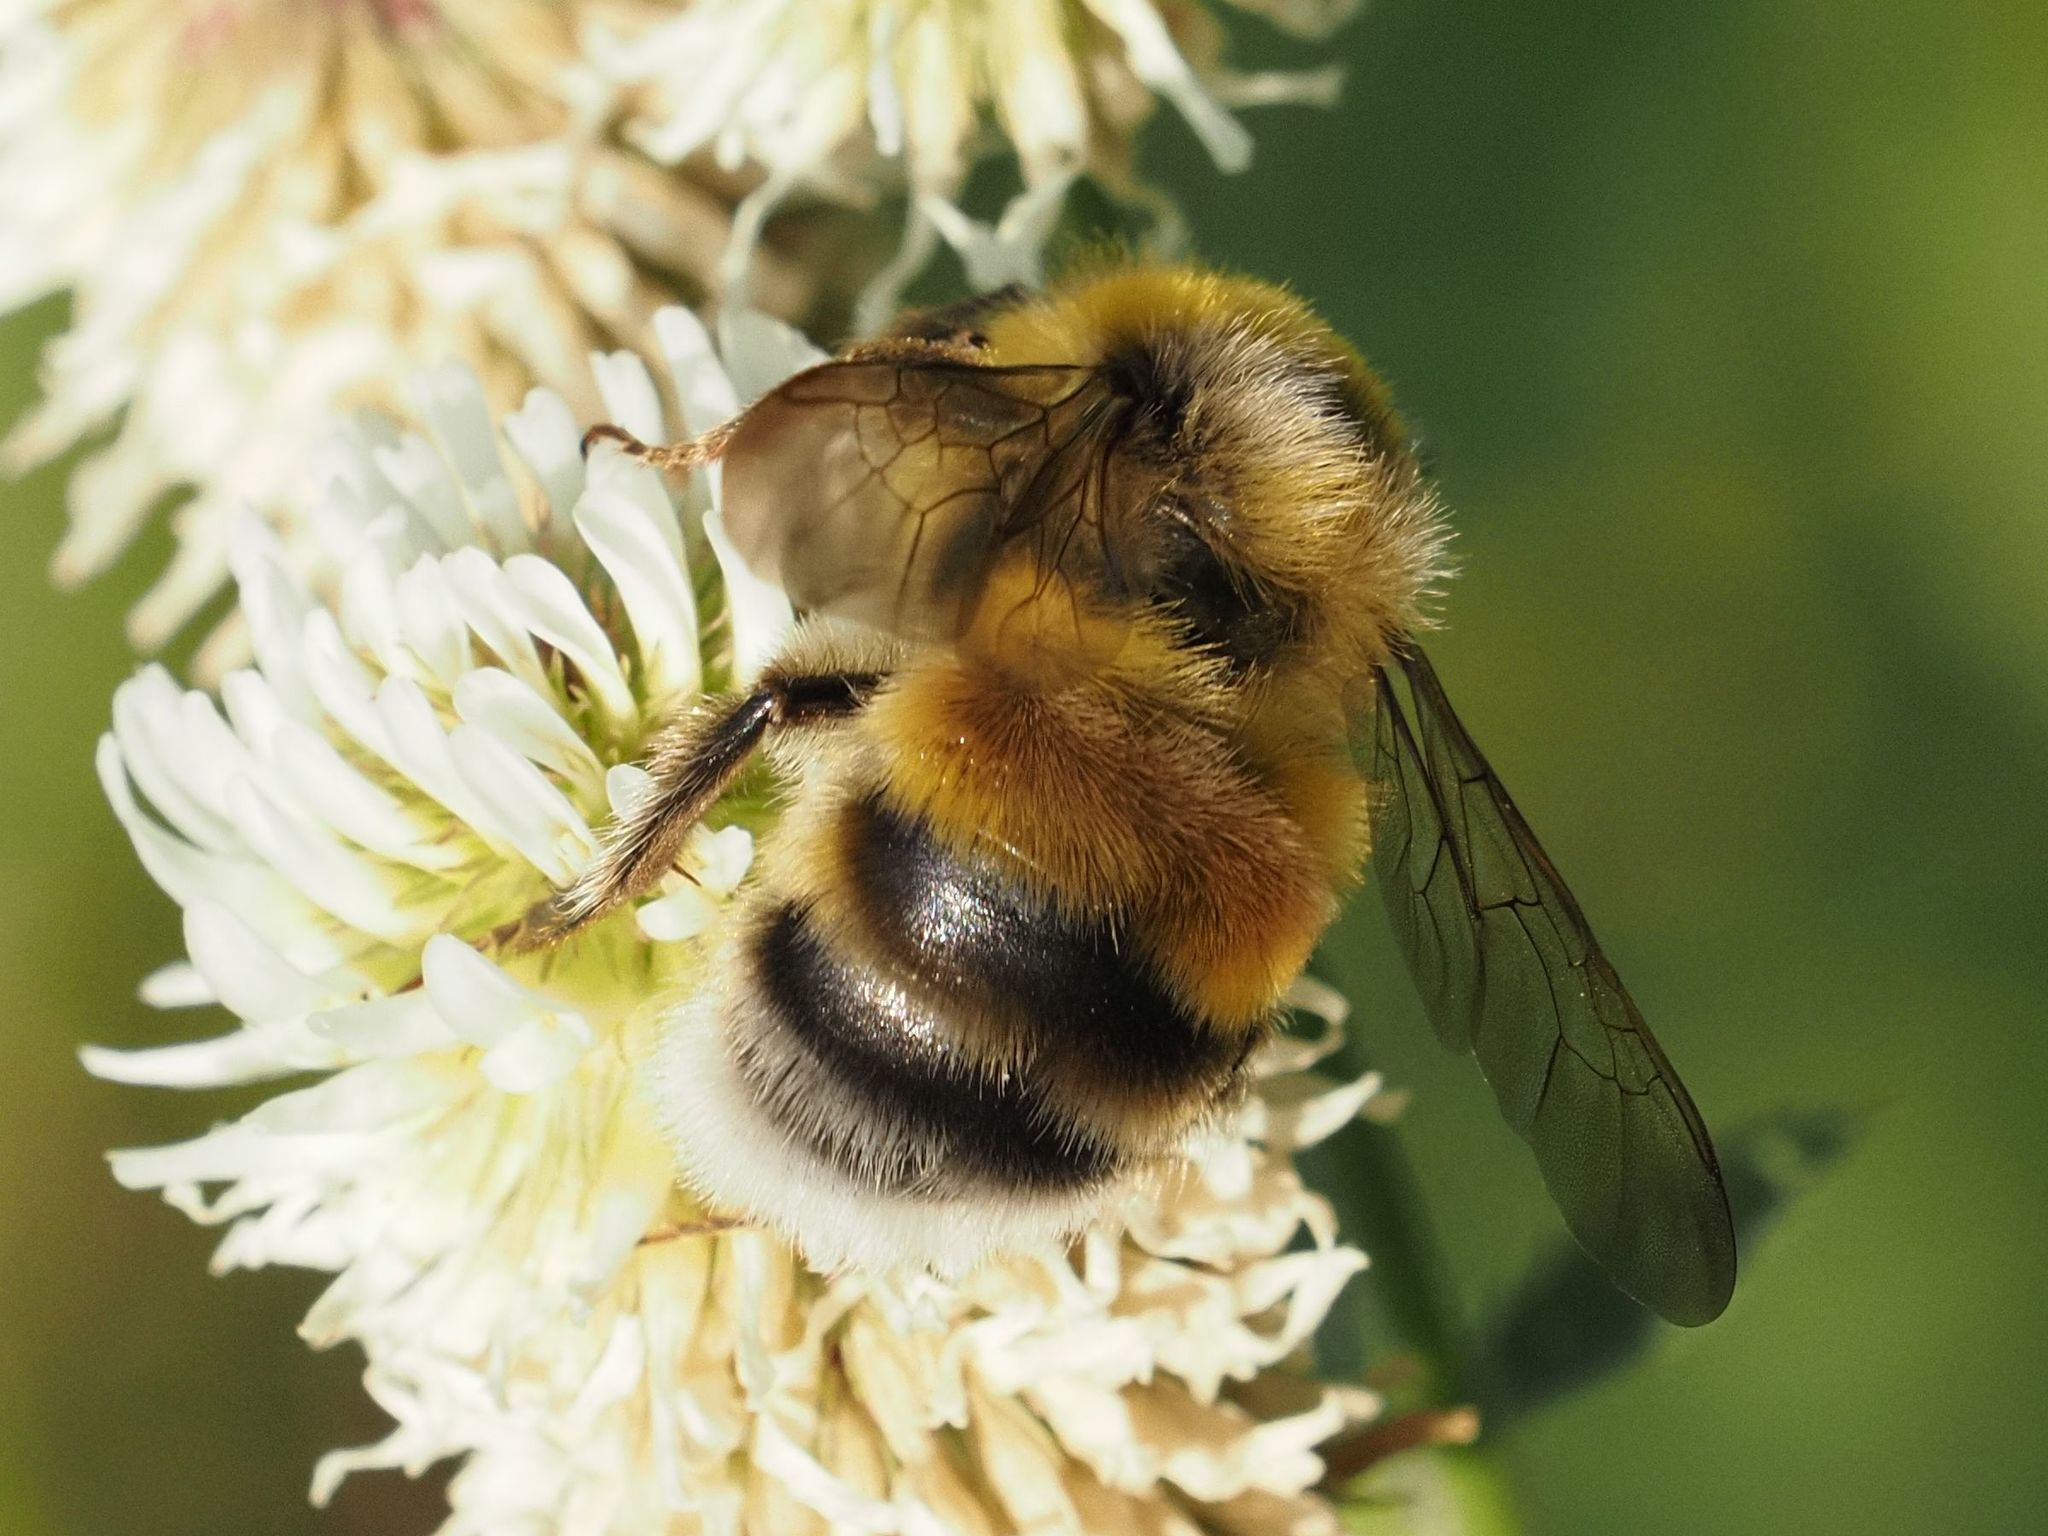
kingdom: Animalia
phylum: Arthropoda
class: Insecta
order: Hymenoptera
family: Apidae
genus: Bombus
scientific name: Bombus lucorum
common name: White-tailed bumblebee
